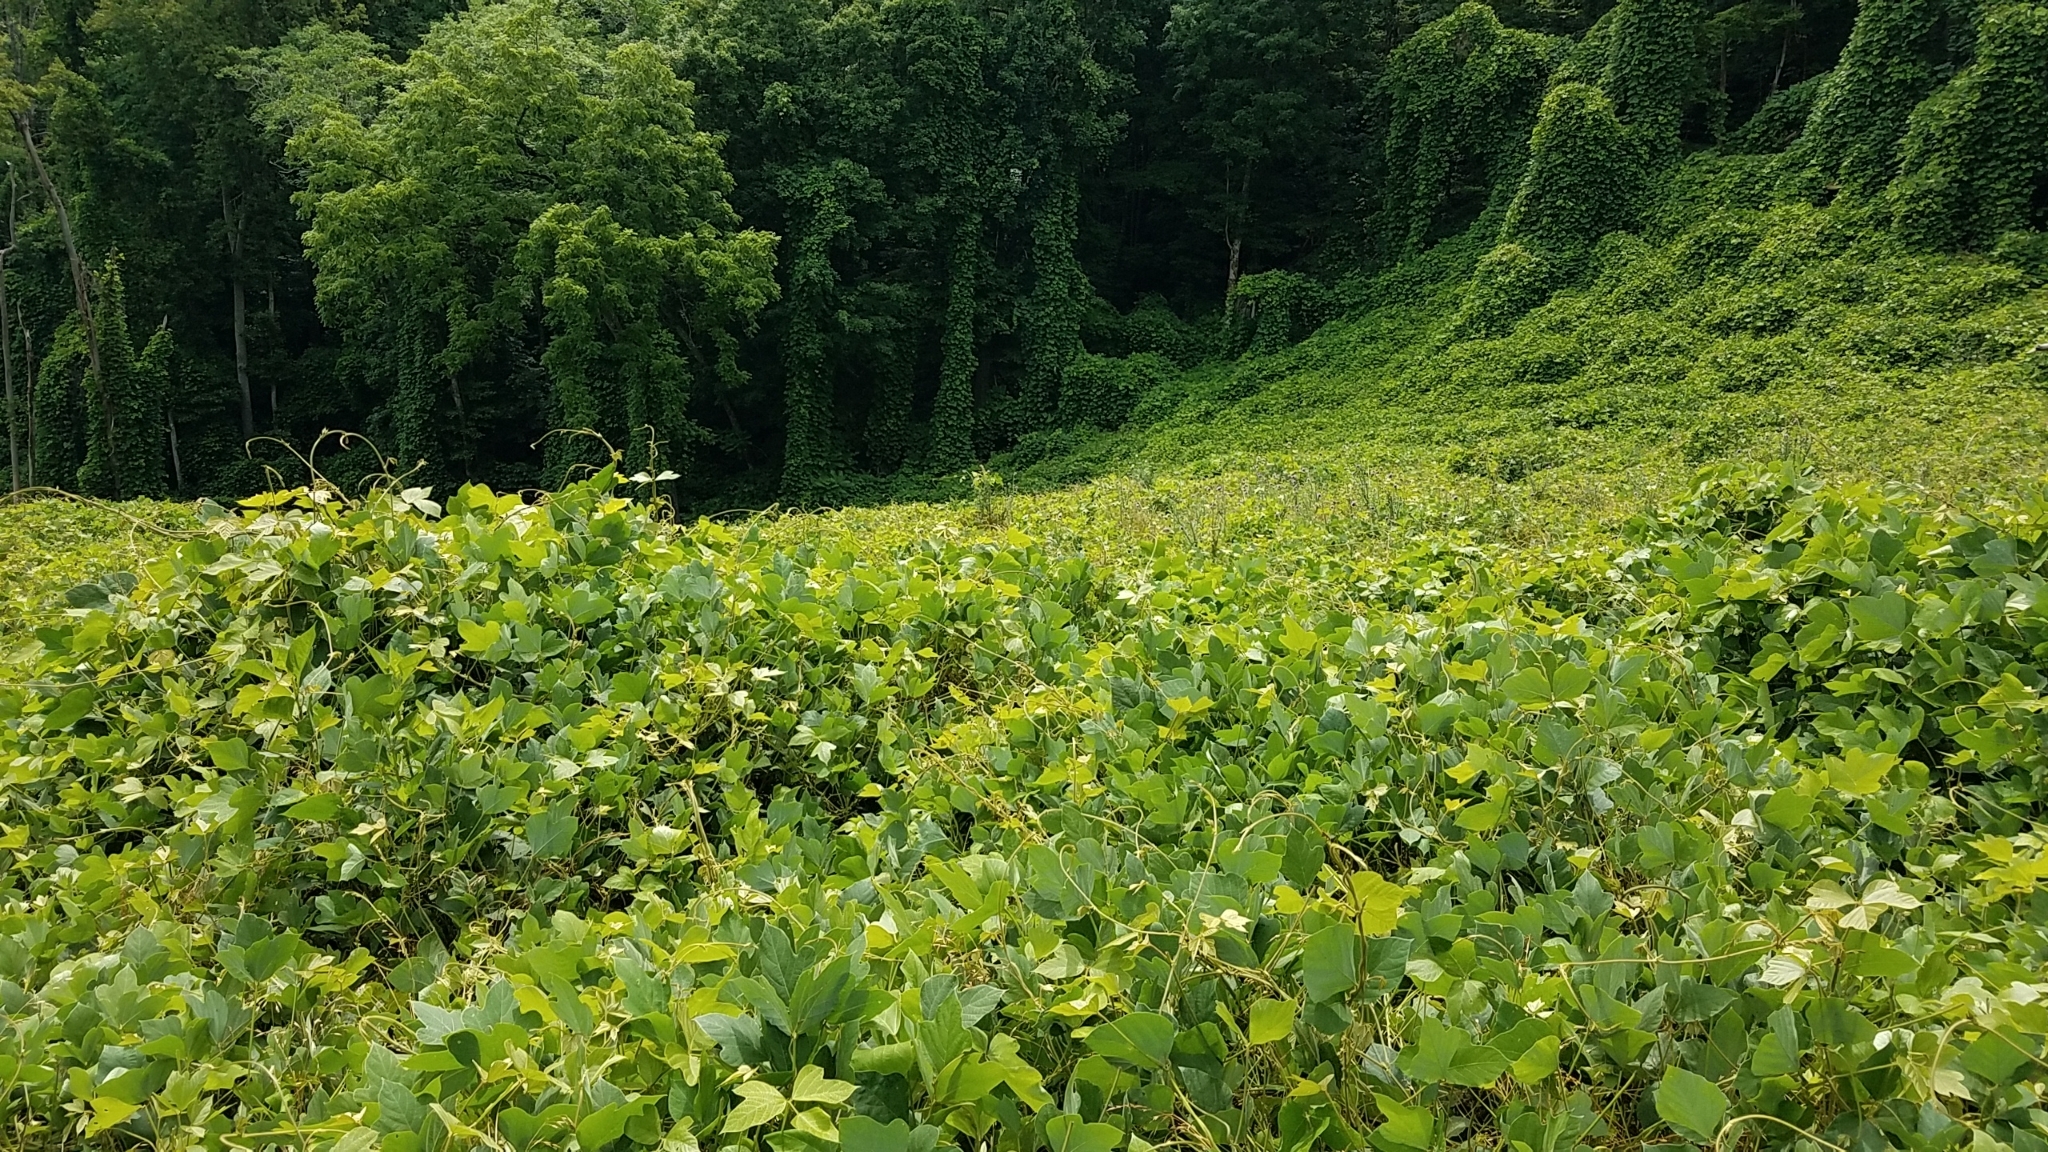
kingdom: Plantae
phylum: Tracheophyta
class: Magnoliopsida
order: Fabales
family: Fabaceae
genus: Pueraria
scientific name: Pueraria montana
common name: Kudzu
